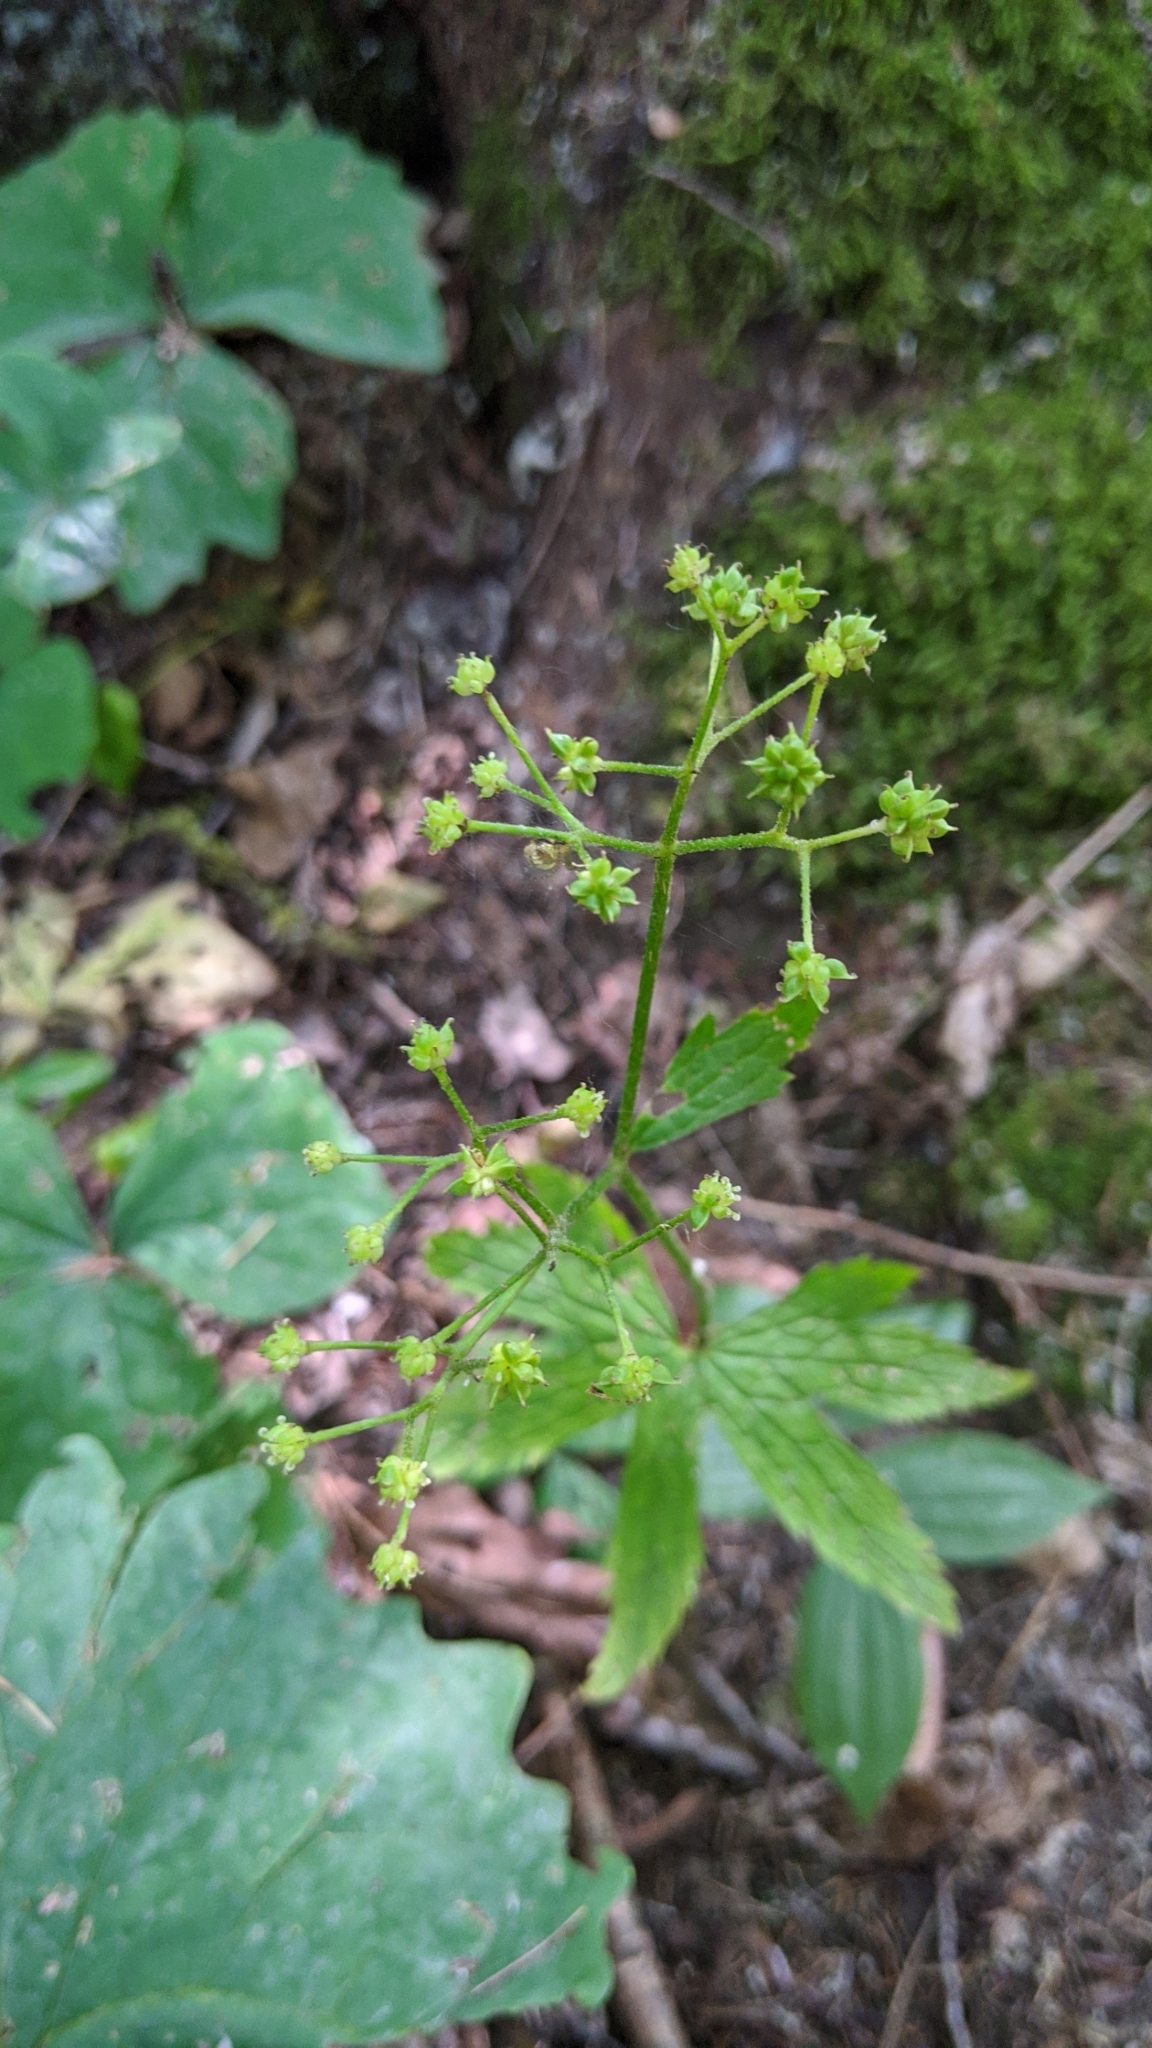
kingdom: Plantae
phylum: Tracheophyta
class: Magnoliopsida
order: Ranunculales
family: Ranunculaceae
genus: Trautvetteria
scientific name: Trautvetteria carolinensis
